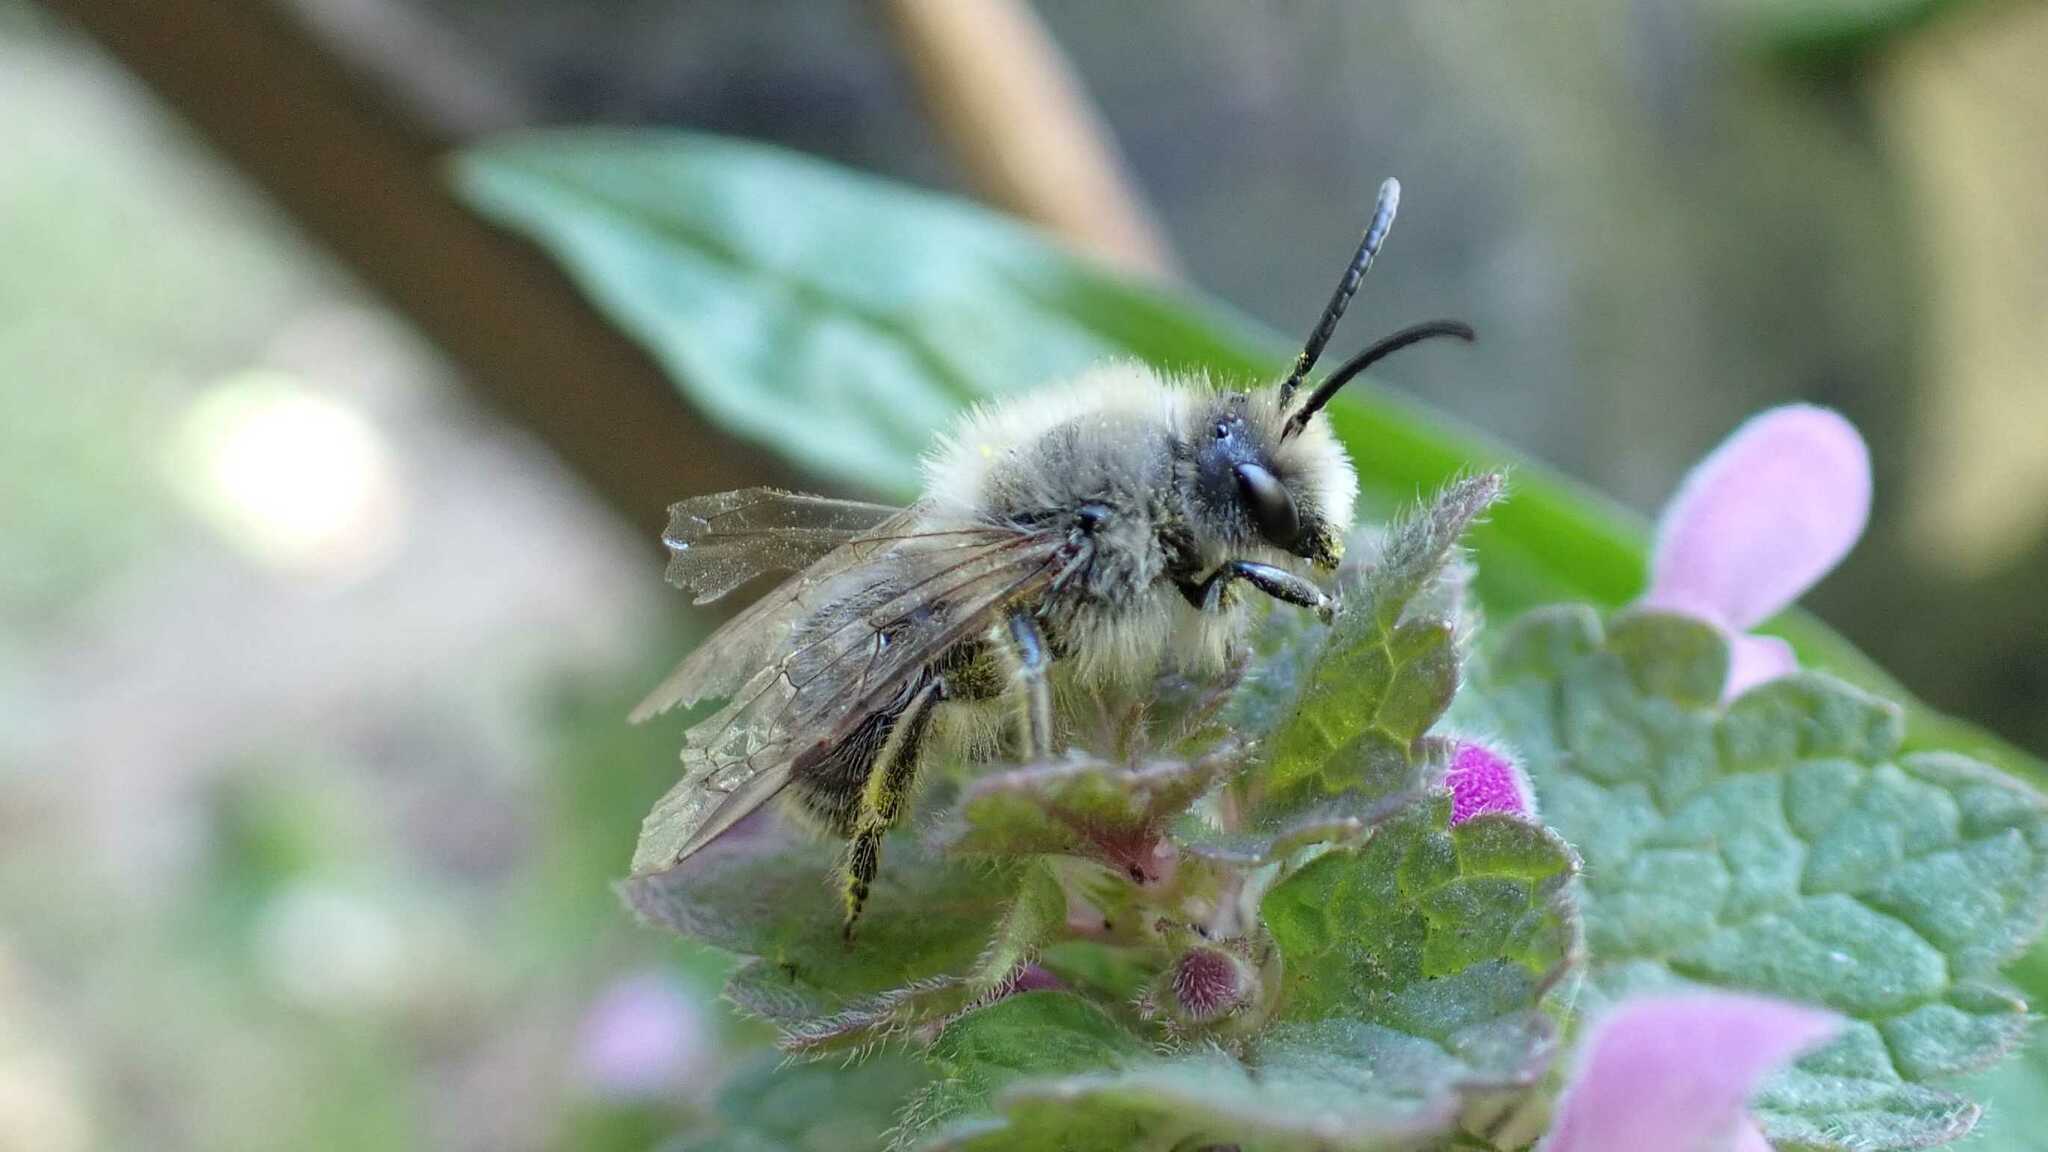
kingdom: Animalia
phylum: Arthropoda
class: Insecta
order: Hymenoptera
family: Colletidae
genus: Colletes
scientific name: Colletes cunicularius
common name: Early colletes
